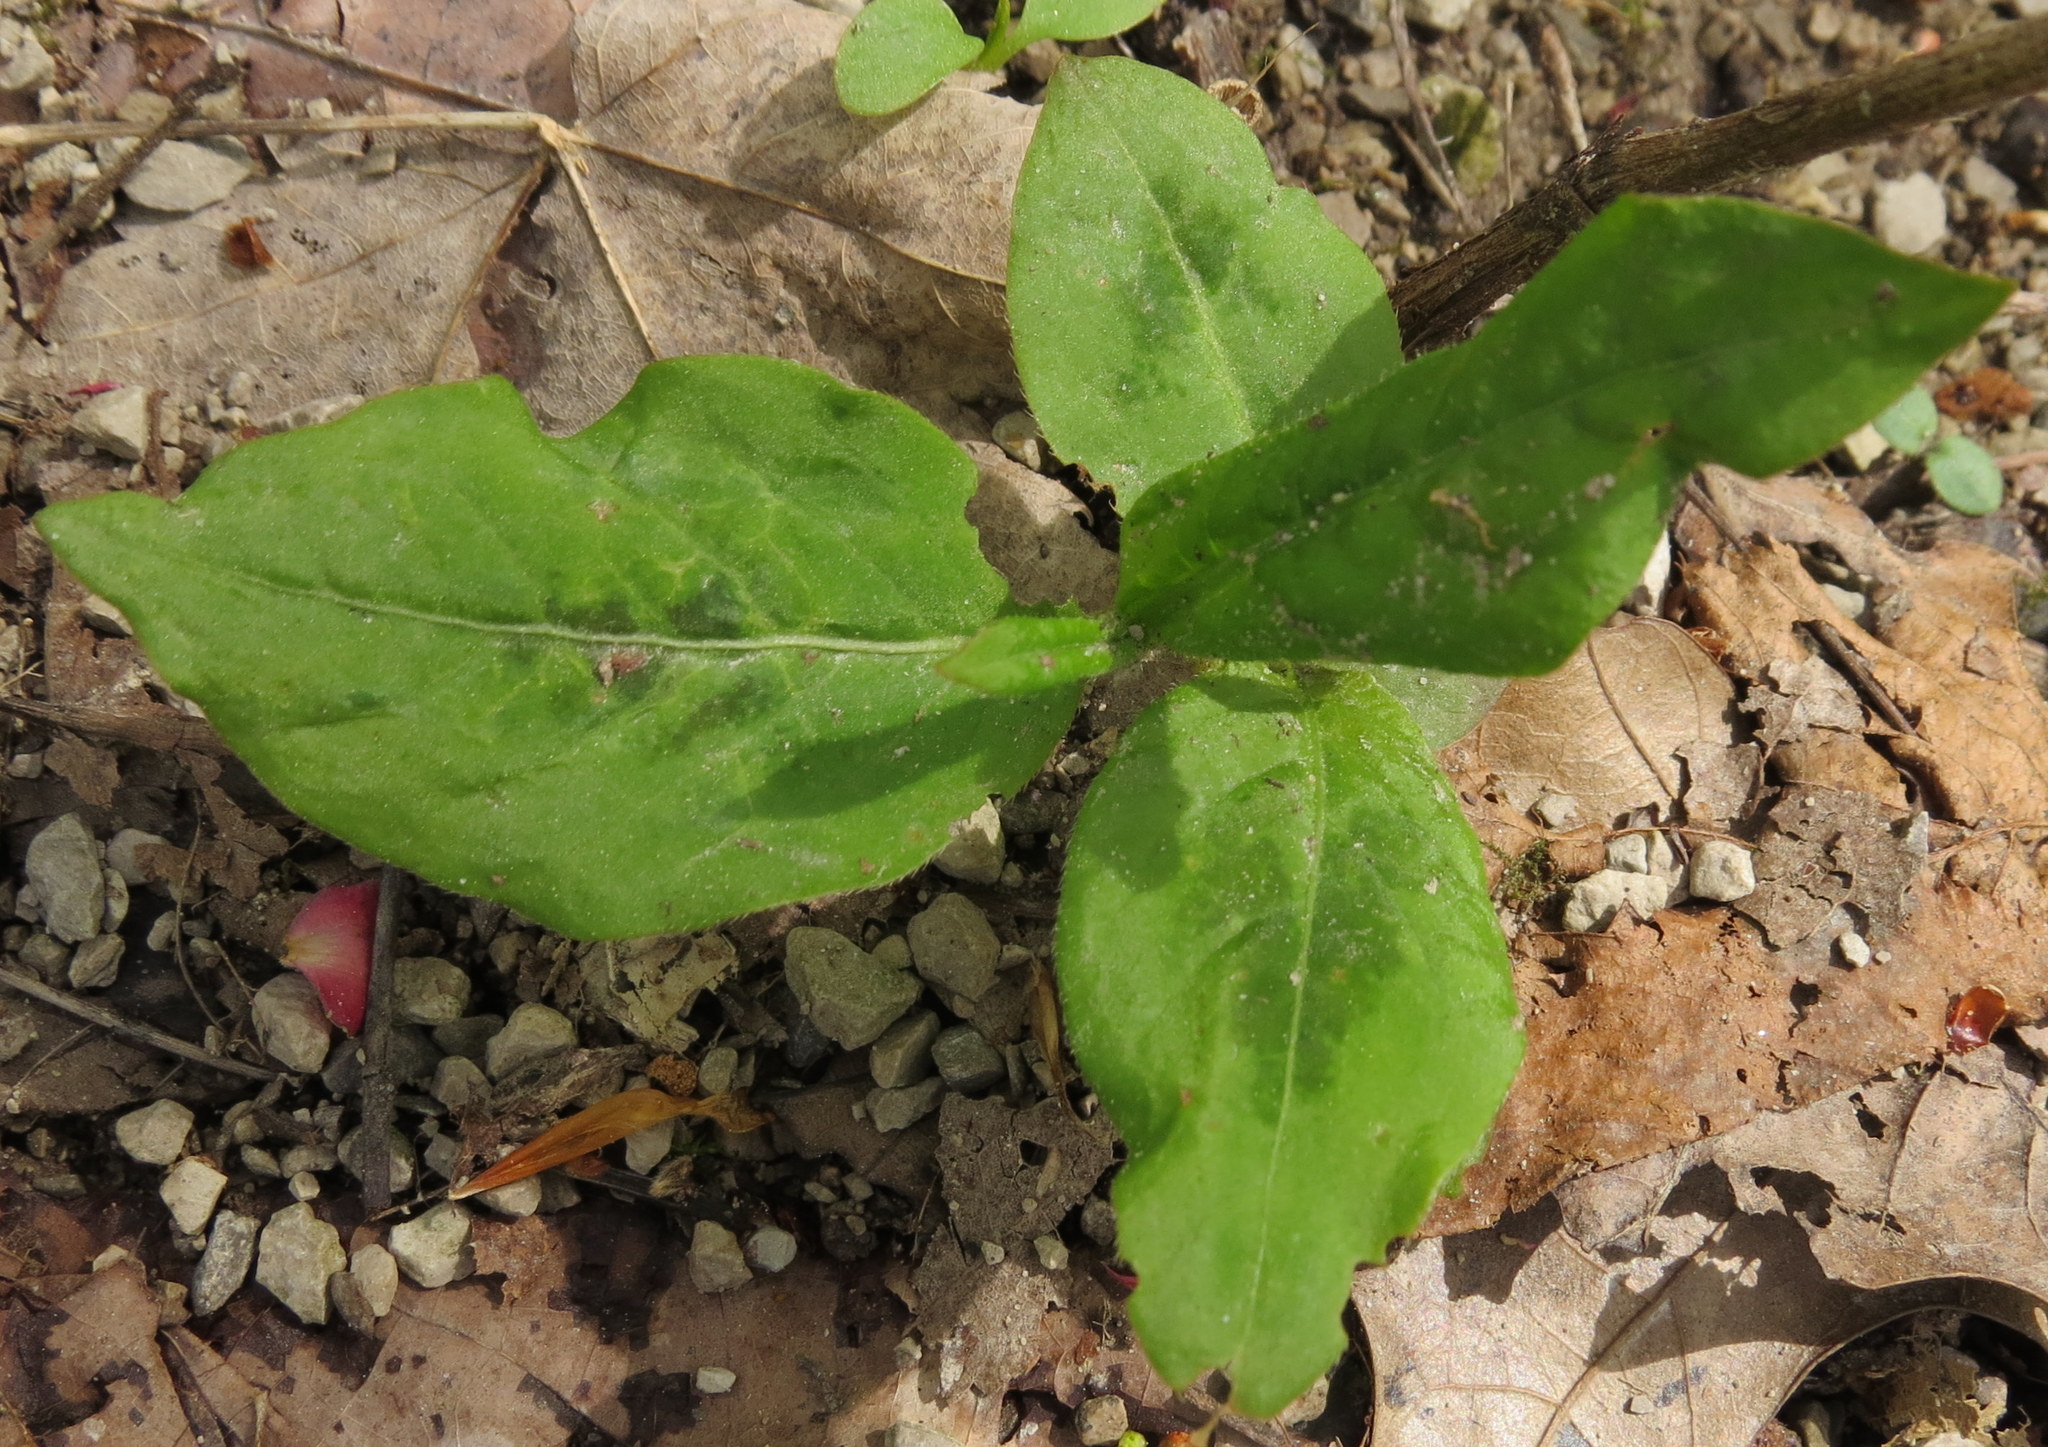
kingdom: Plantae
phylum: Tracheophyta
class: Magnoliopsida
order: Caryophyllales
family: Polygonaceae
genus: Persicaria
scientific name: Persicaria virginiana
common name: Jumpseed
